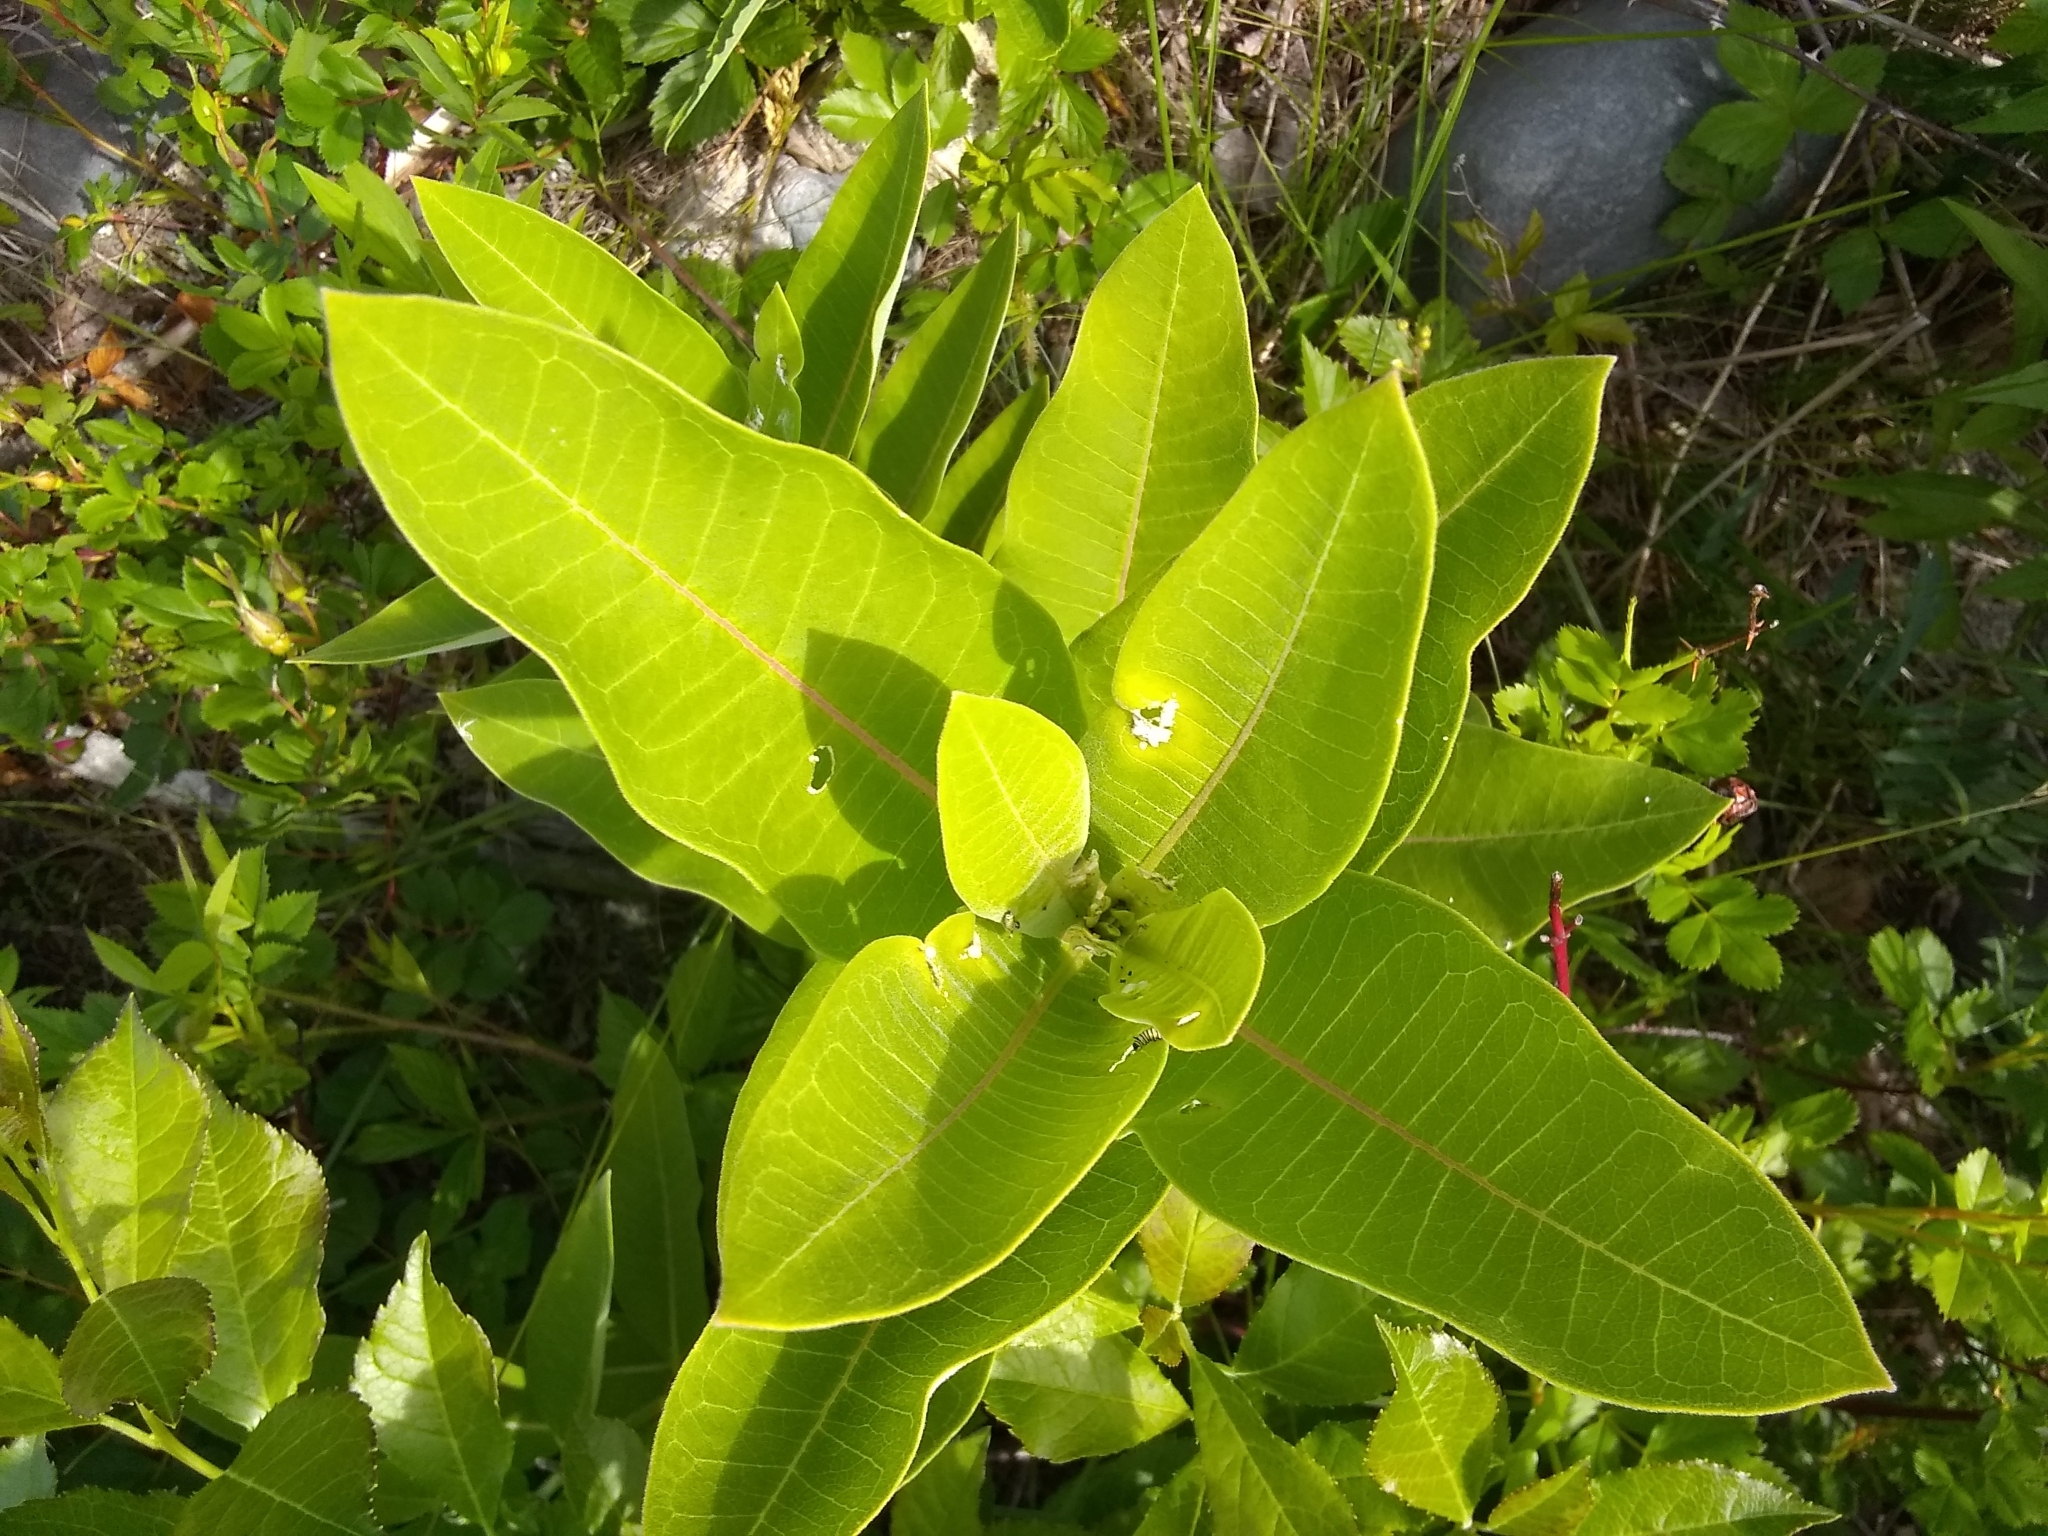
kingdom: Plantae
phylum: Tracheophyta
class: Magnoliopsida
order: Gentianales
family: Apocynaceae
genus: Asclepias
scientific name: Asclepias syriaca
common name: Common milkweed
